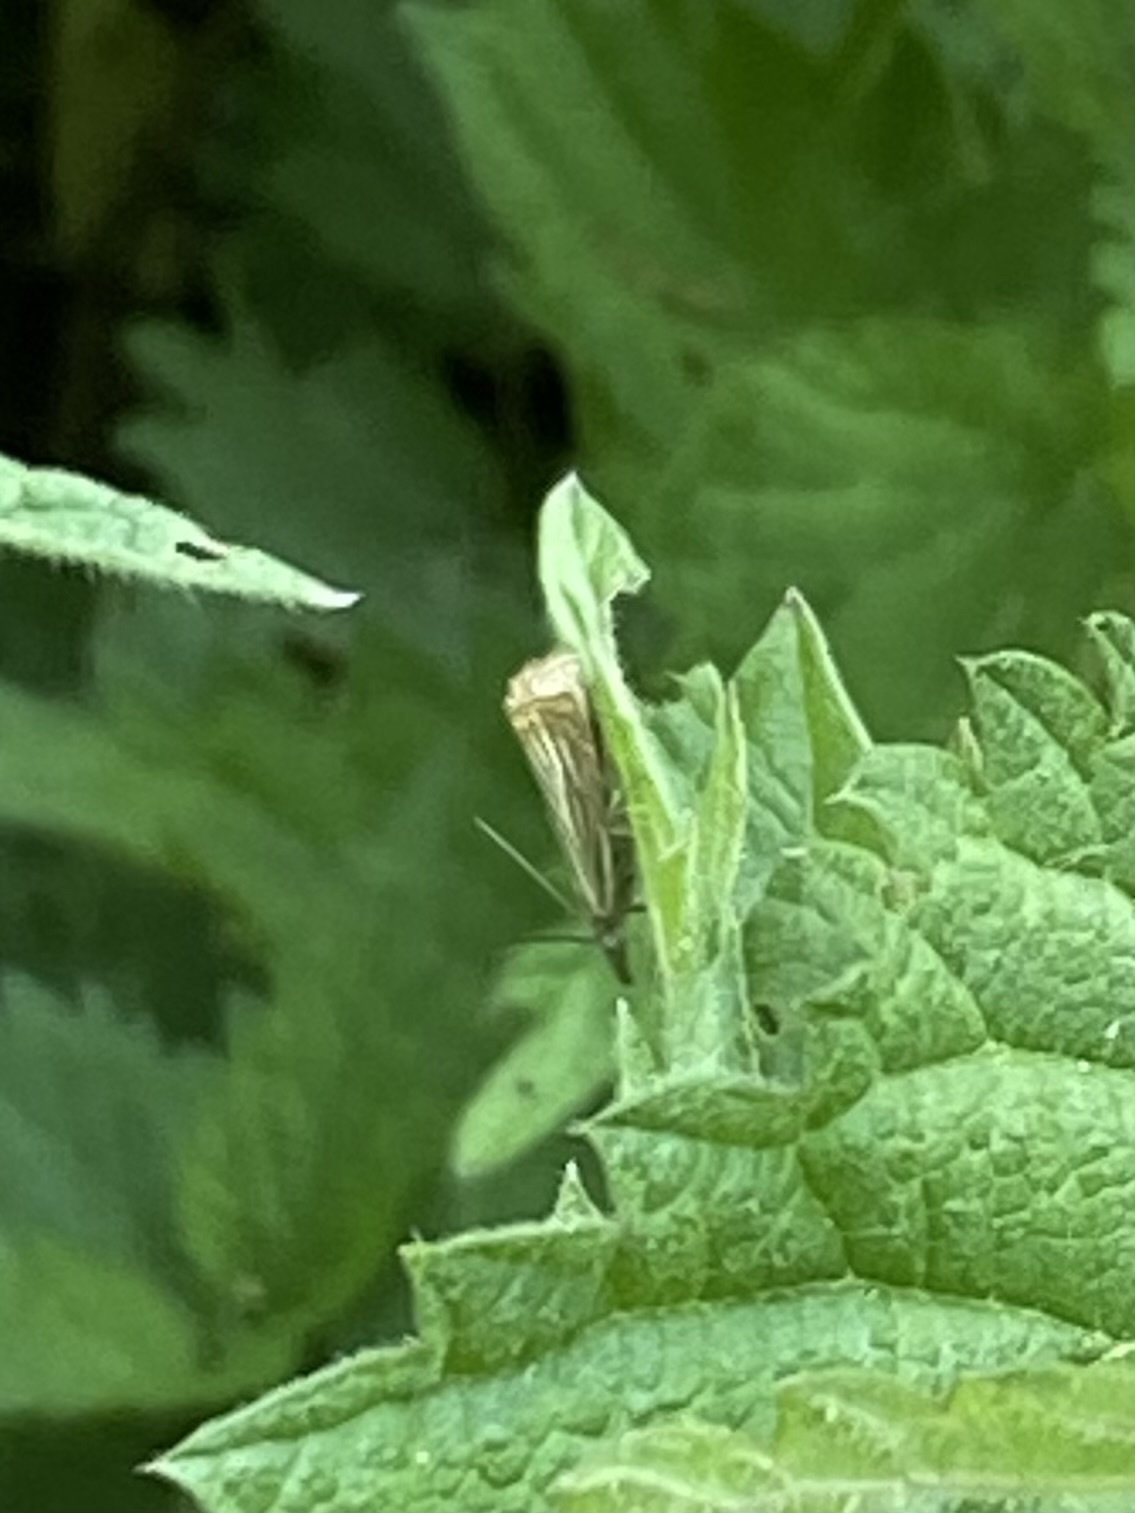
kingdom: Animalia
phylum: Arthropoda
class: Insecta
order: Lepidoptera
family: Crambidae
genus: Chrysoteuchia
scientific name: Chrysoteuchia culmella
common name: Garden grass-veneer
